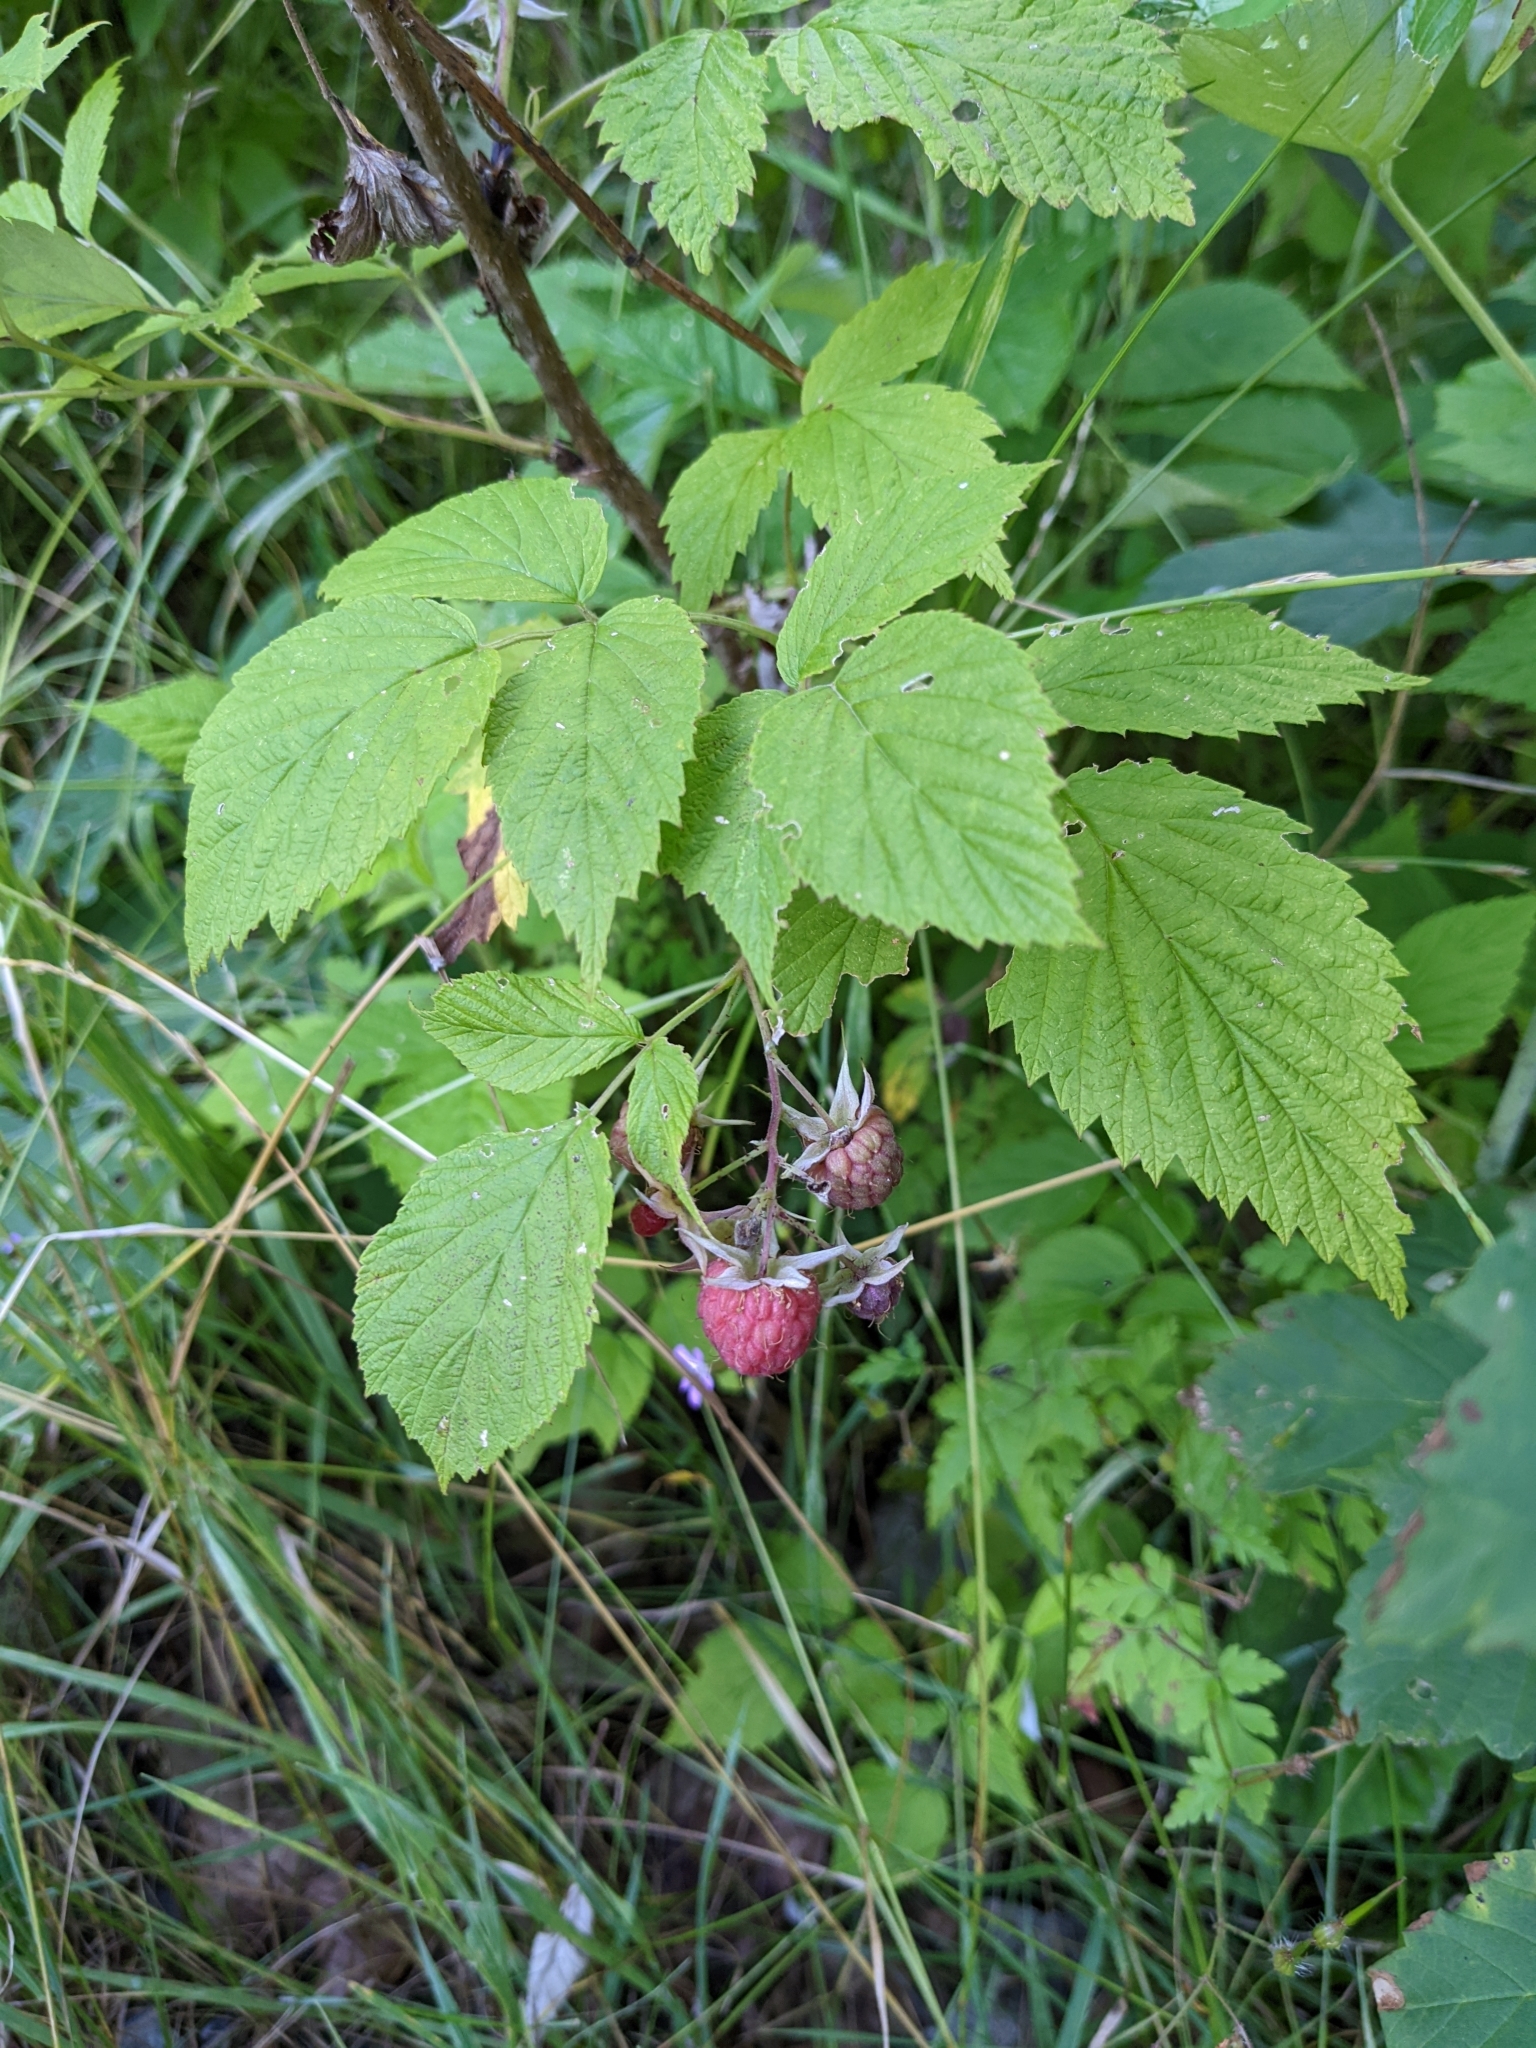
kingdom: Plantae
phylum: Tracheophyta
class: Magnoliopsida
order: Rosales
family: Rosaceae
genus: Rubus
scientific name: Rubus idaeus
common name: Raspberry
